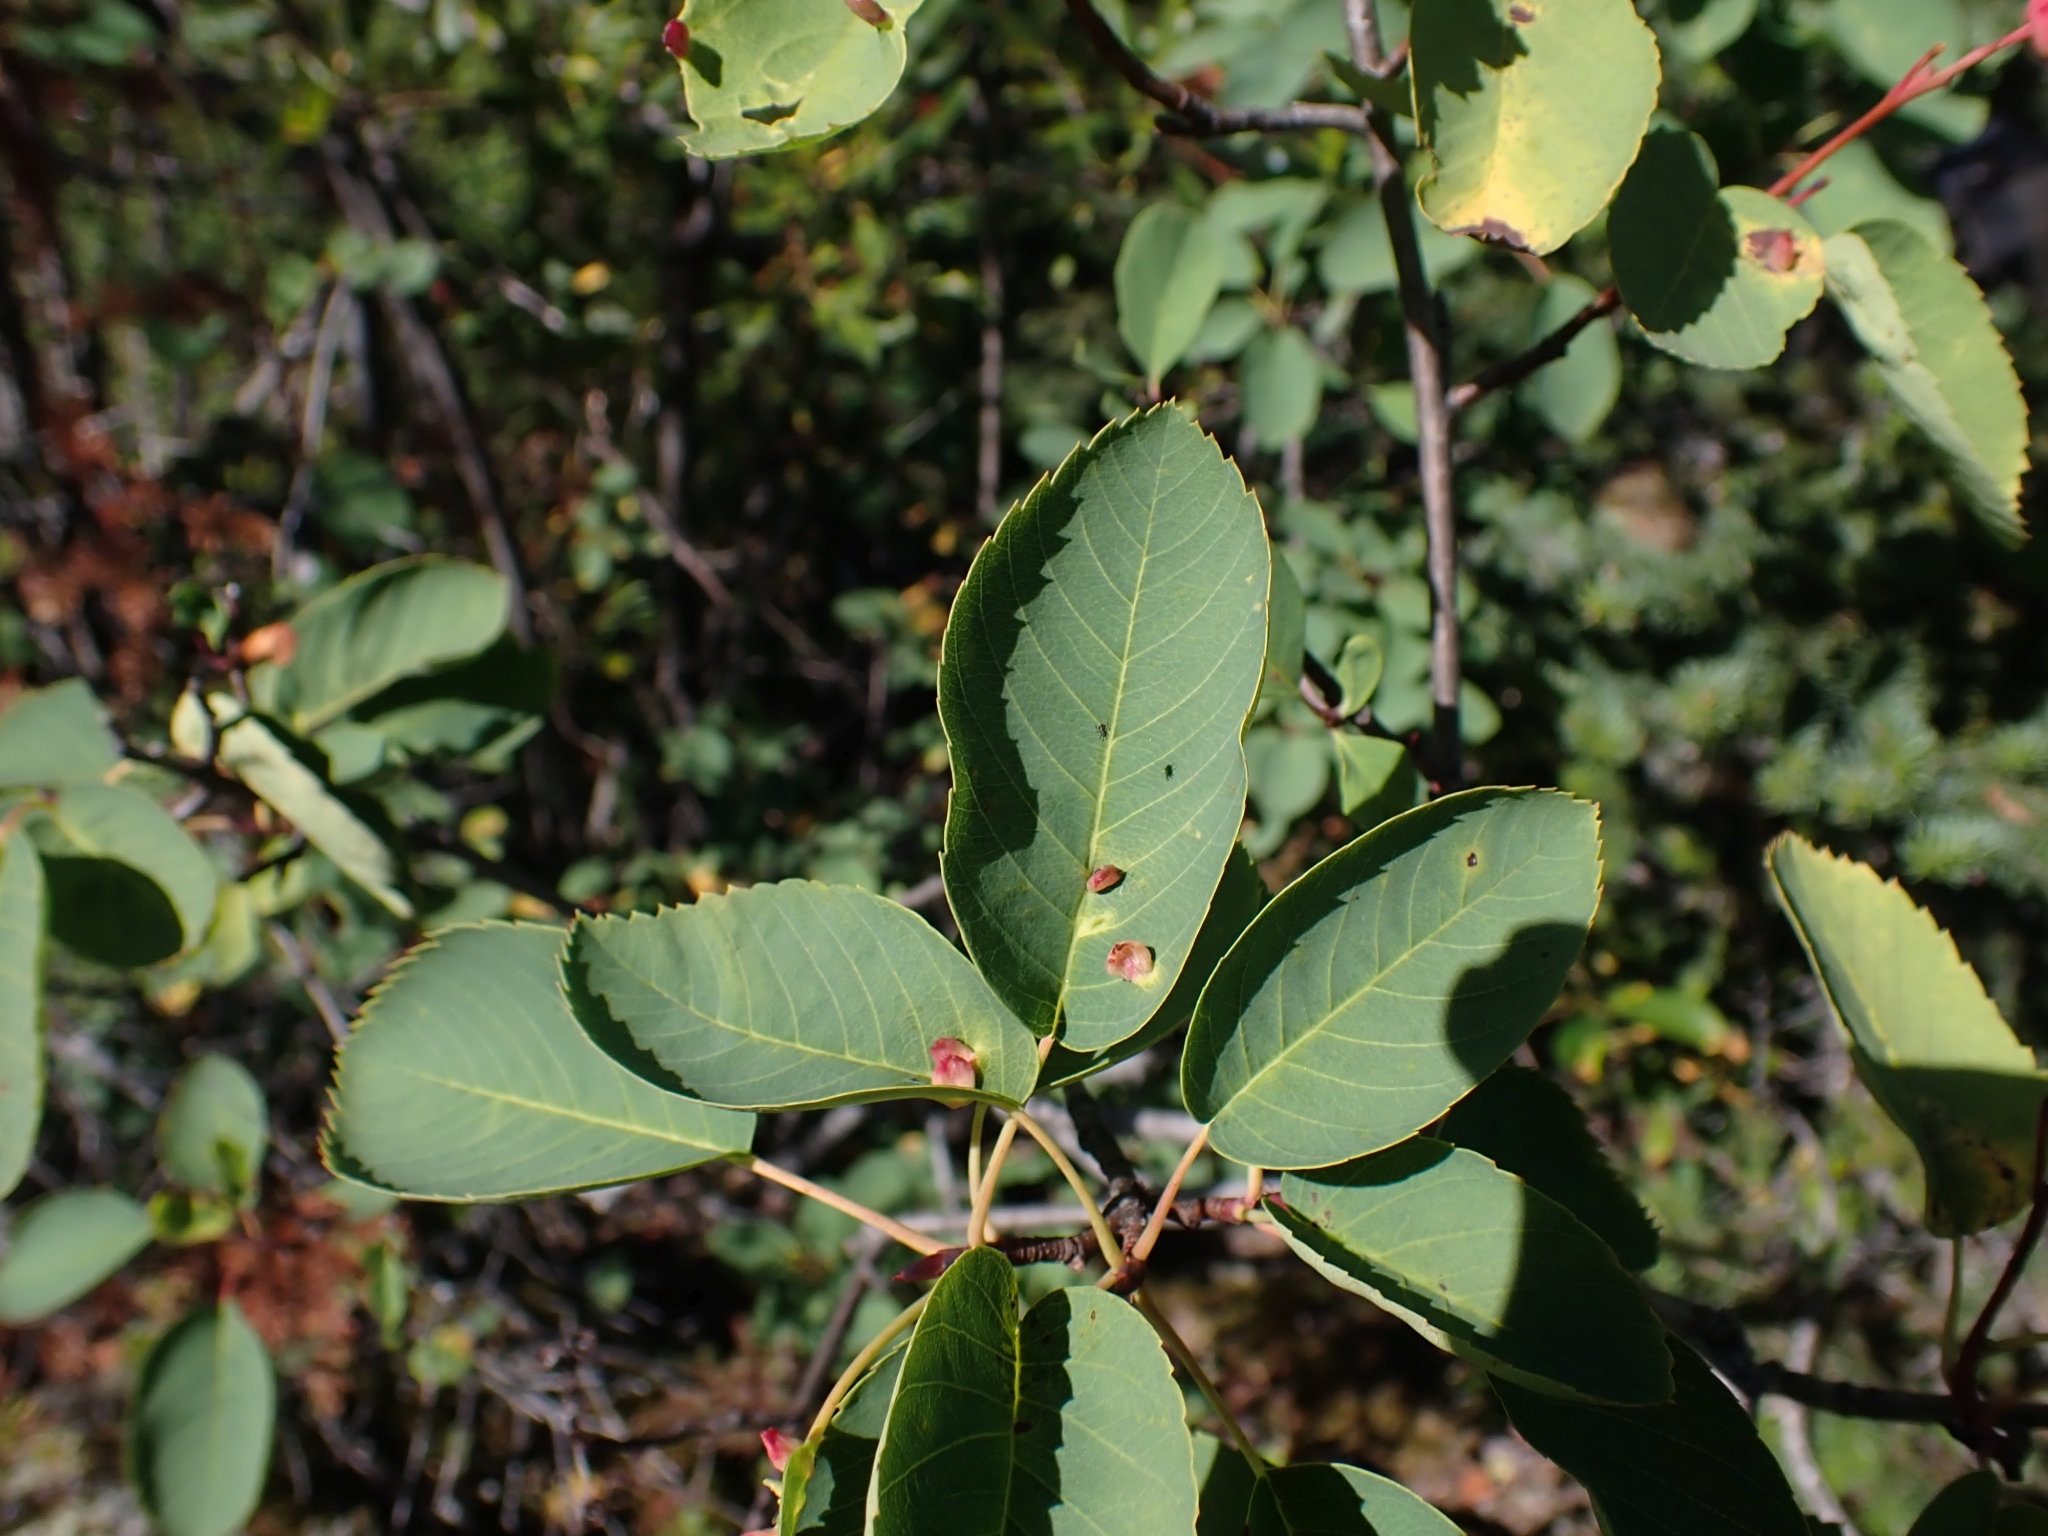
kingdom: Plantae
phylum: Tracheophyta
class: Magnoliopsida
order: Rosales
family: Rosaceae
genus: Amelanchier
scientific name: Amelanchier alnifolia
